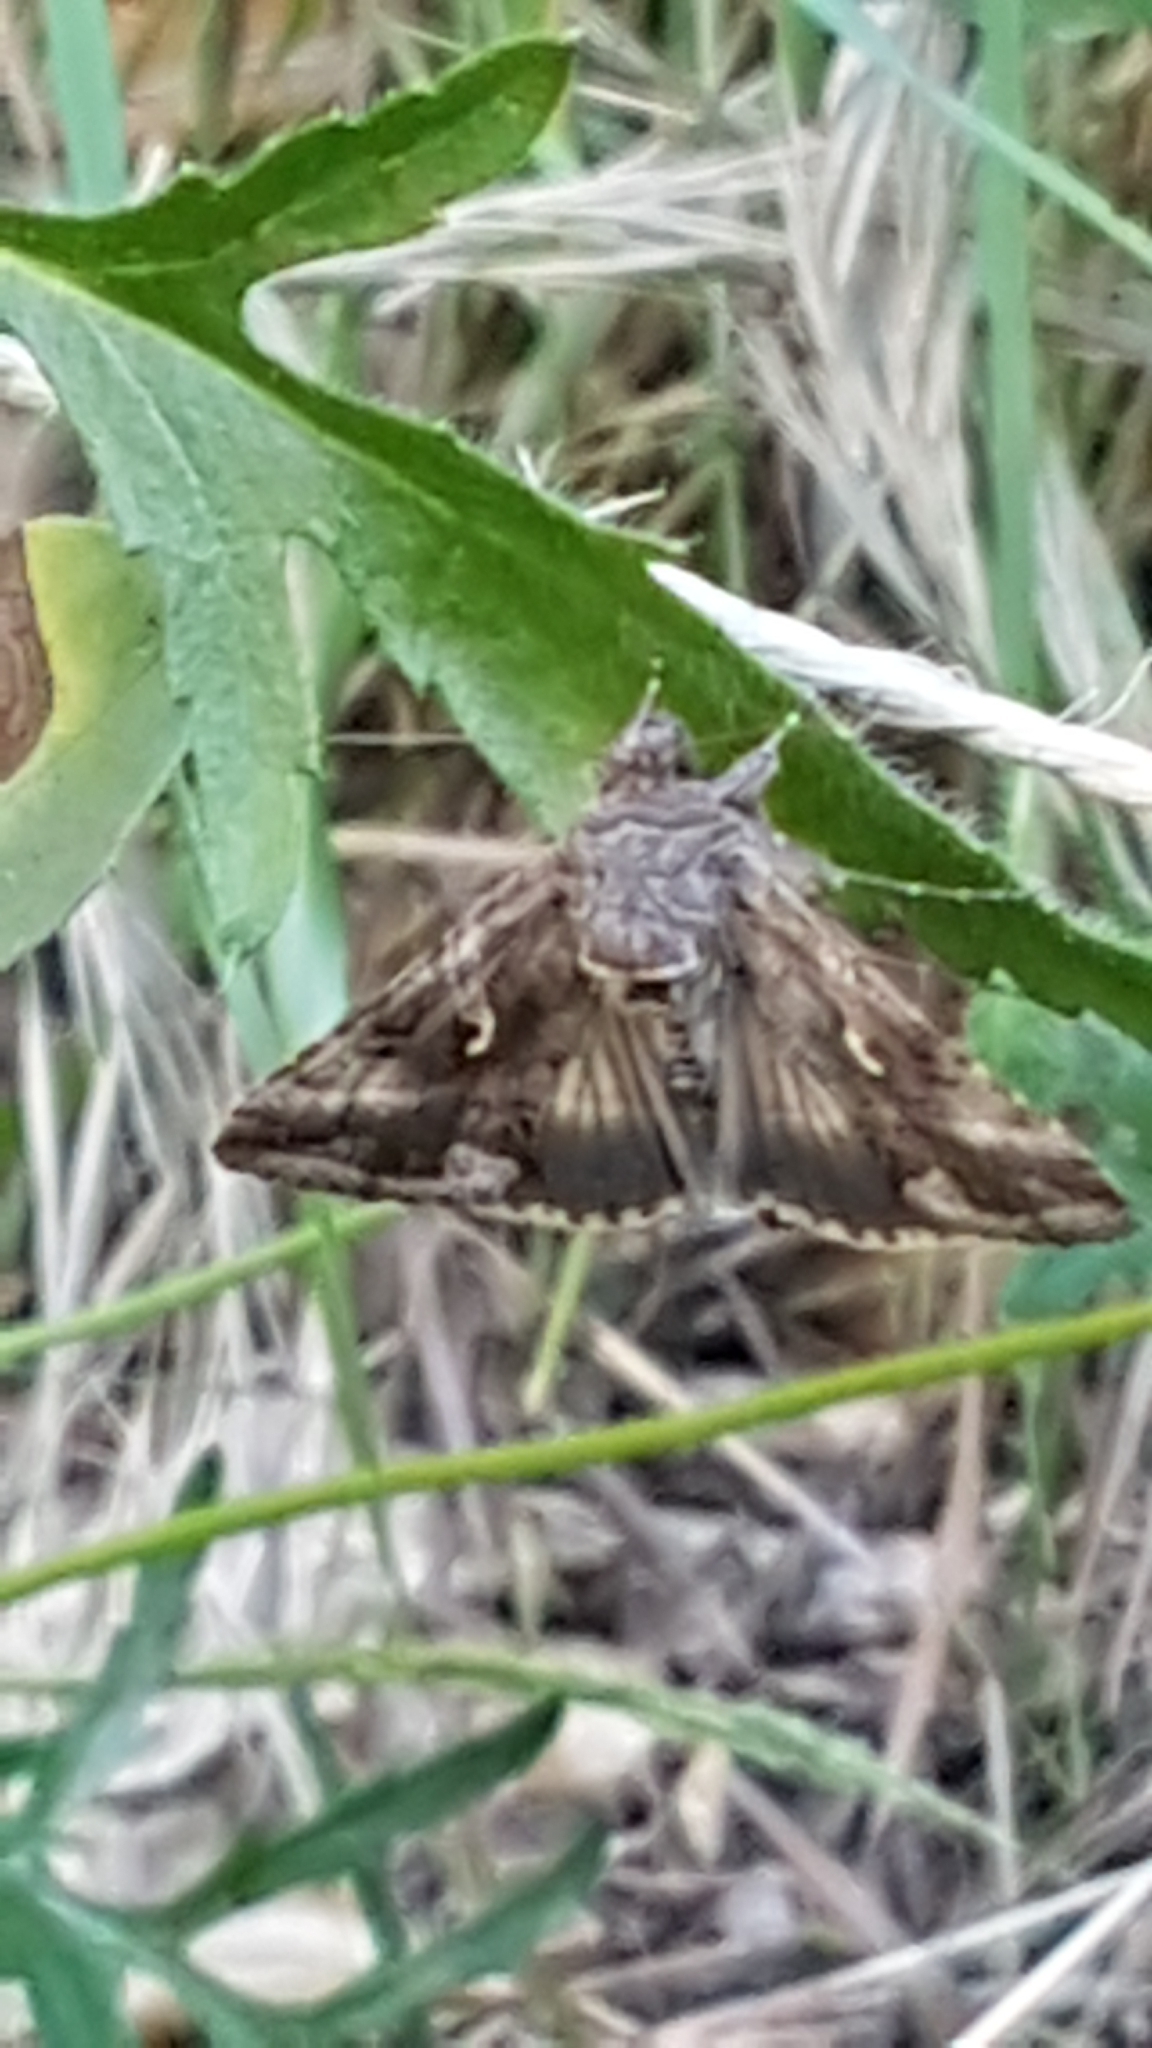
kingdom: Animalia
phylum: Arthropoda
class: Insecta
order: Lepidoptera
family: Noctuidae
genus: Autographa
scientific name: Autographa gamma
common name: Silver y
